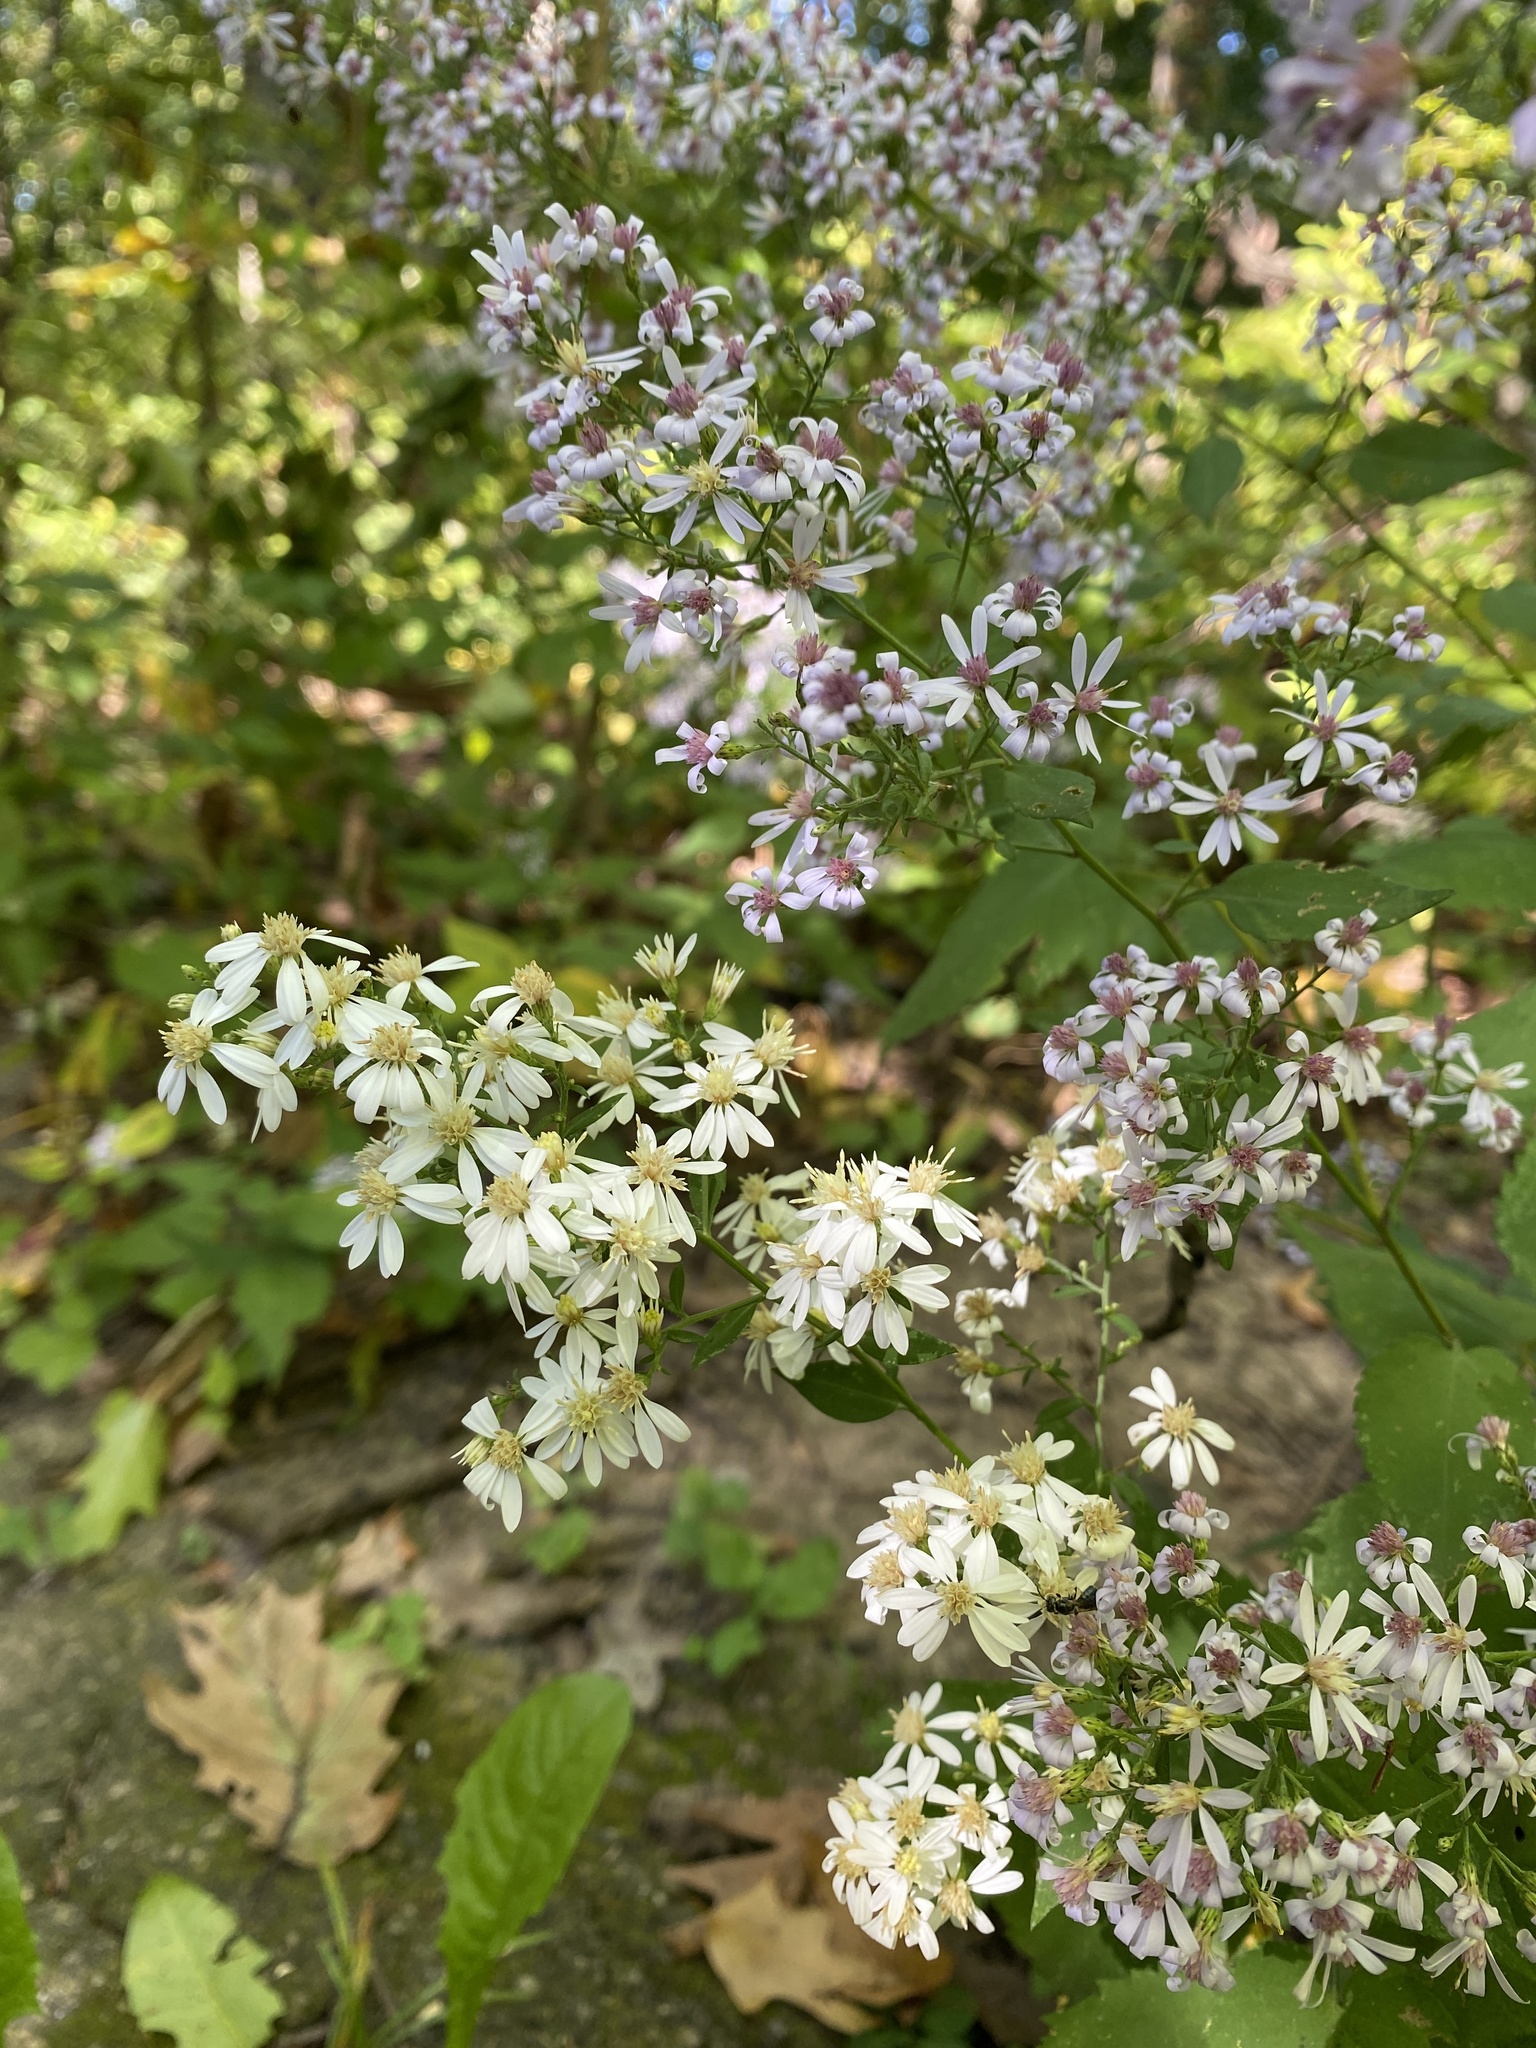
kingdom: Plantae
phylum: Tracheophyta
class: Magnoliopsida
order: Asterales
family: Asteraceae
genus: Symphyotrichum
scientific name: Symphyotrichum cordifolium
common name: Beeweed
